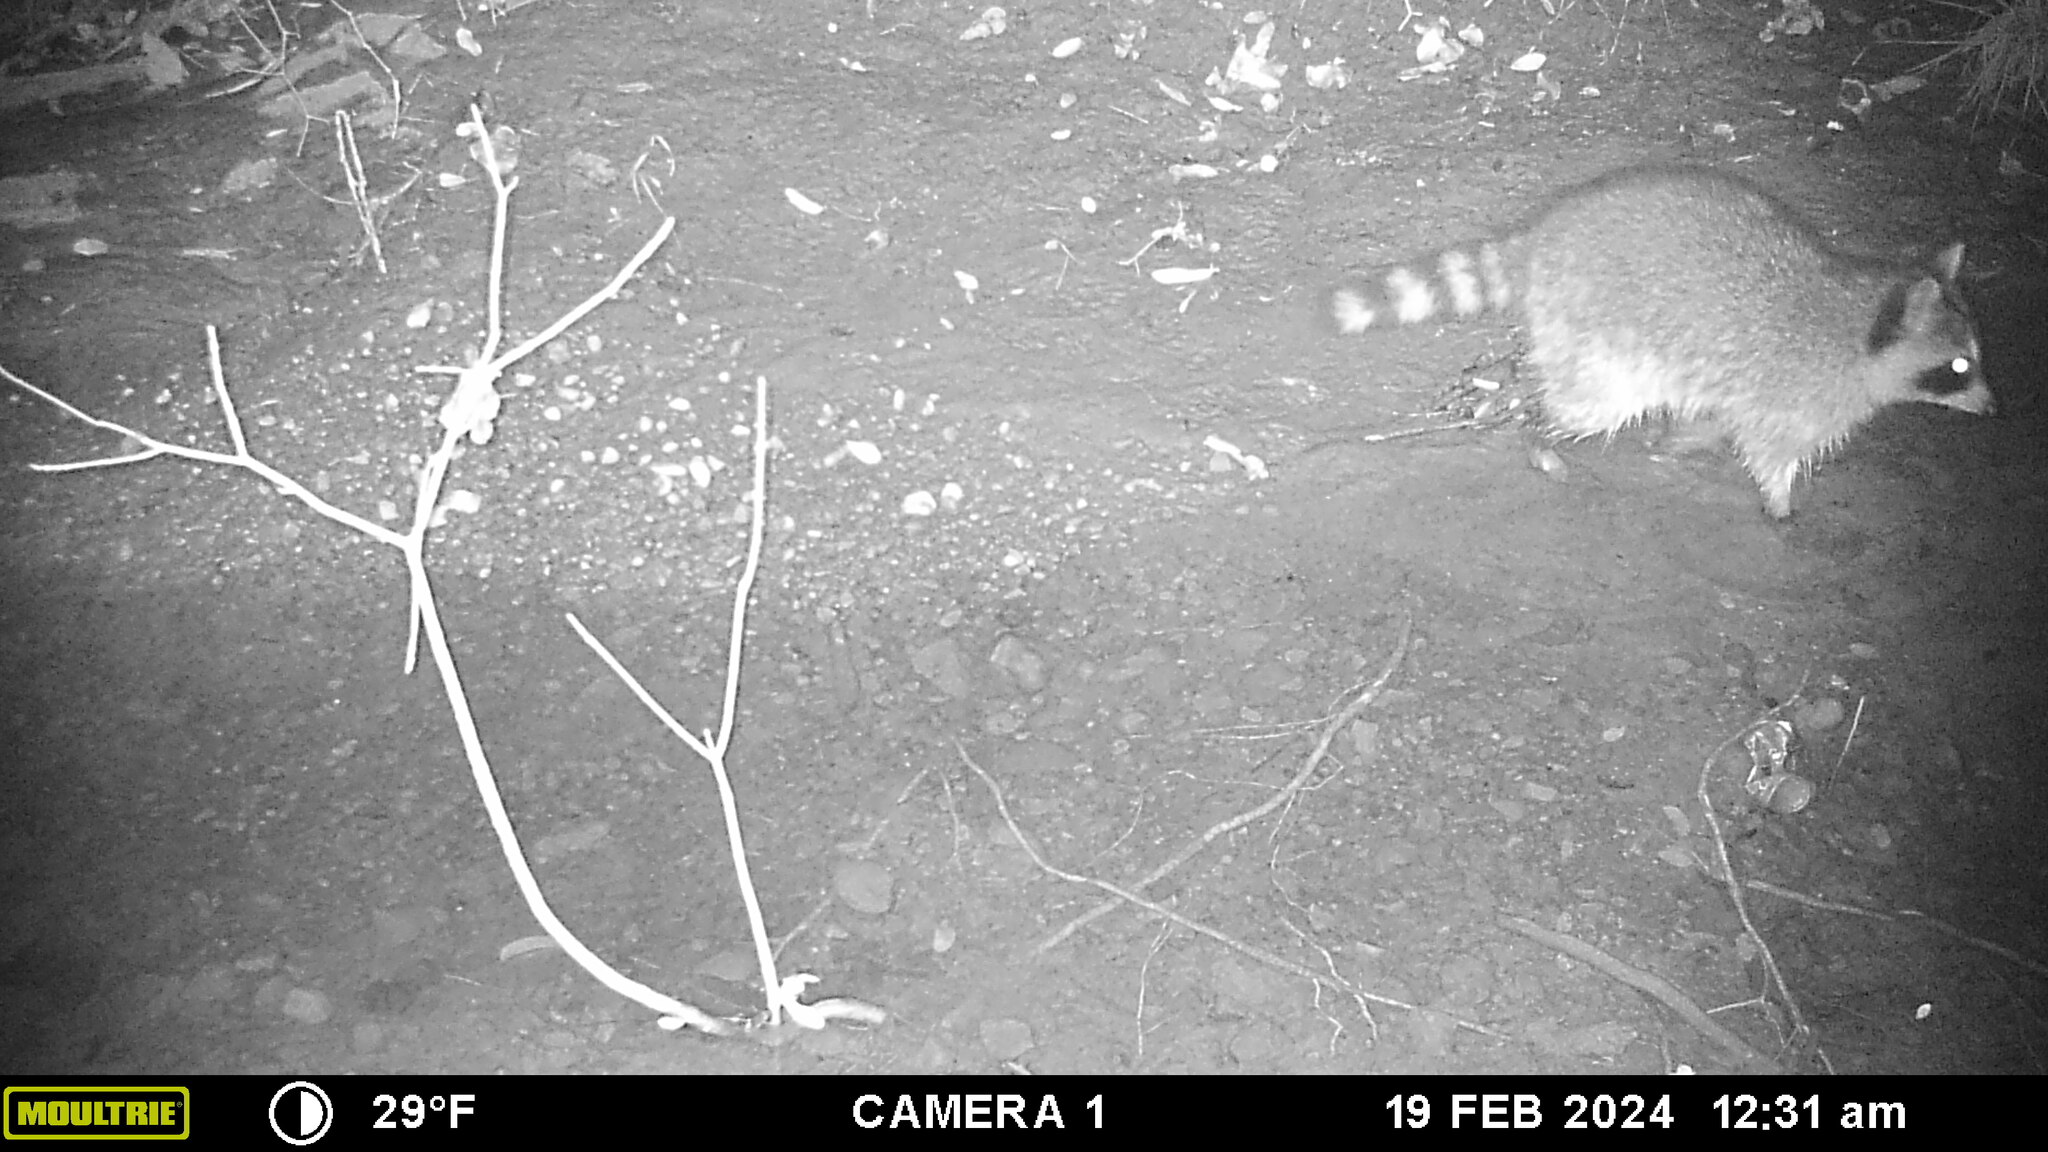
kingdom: Animalia
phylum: Chordata
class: Mammalia
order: Carnivora
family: Procyonidae
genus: Procyon
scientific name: Procyon lotor
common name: Raccoon
